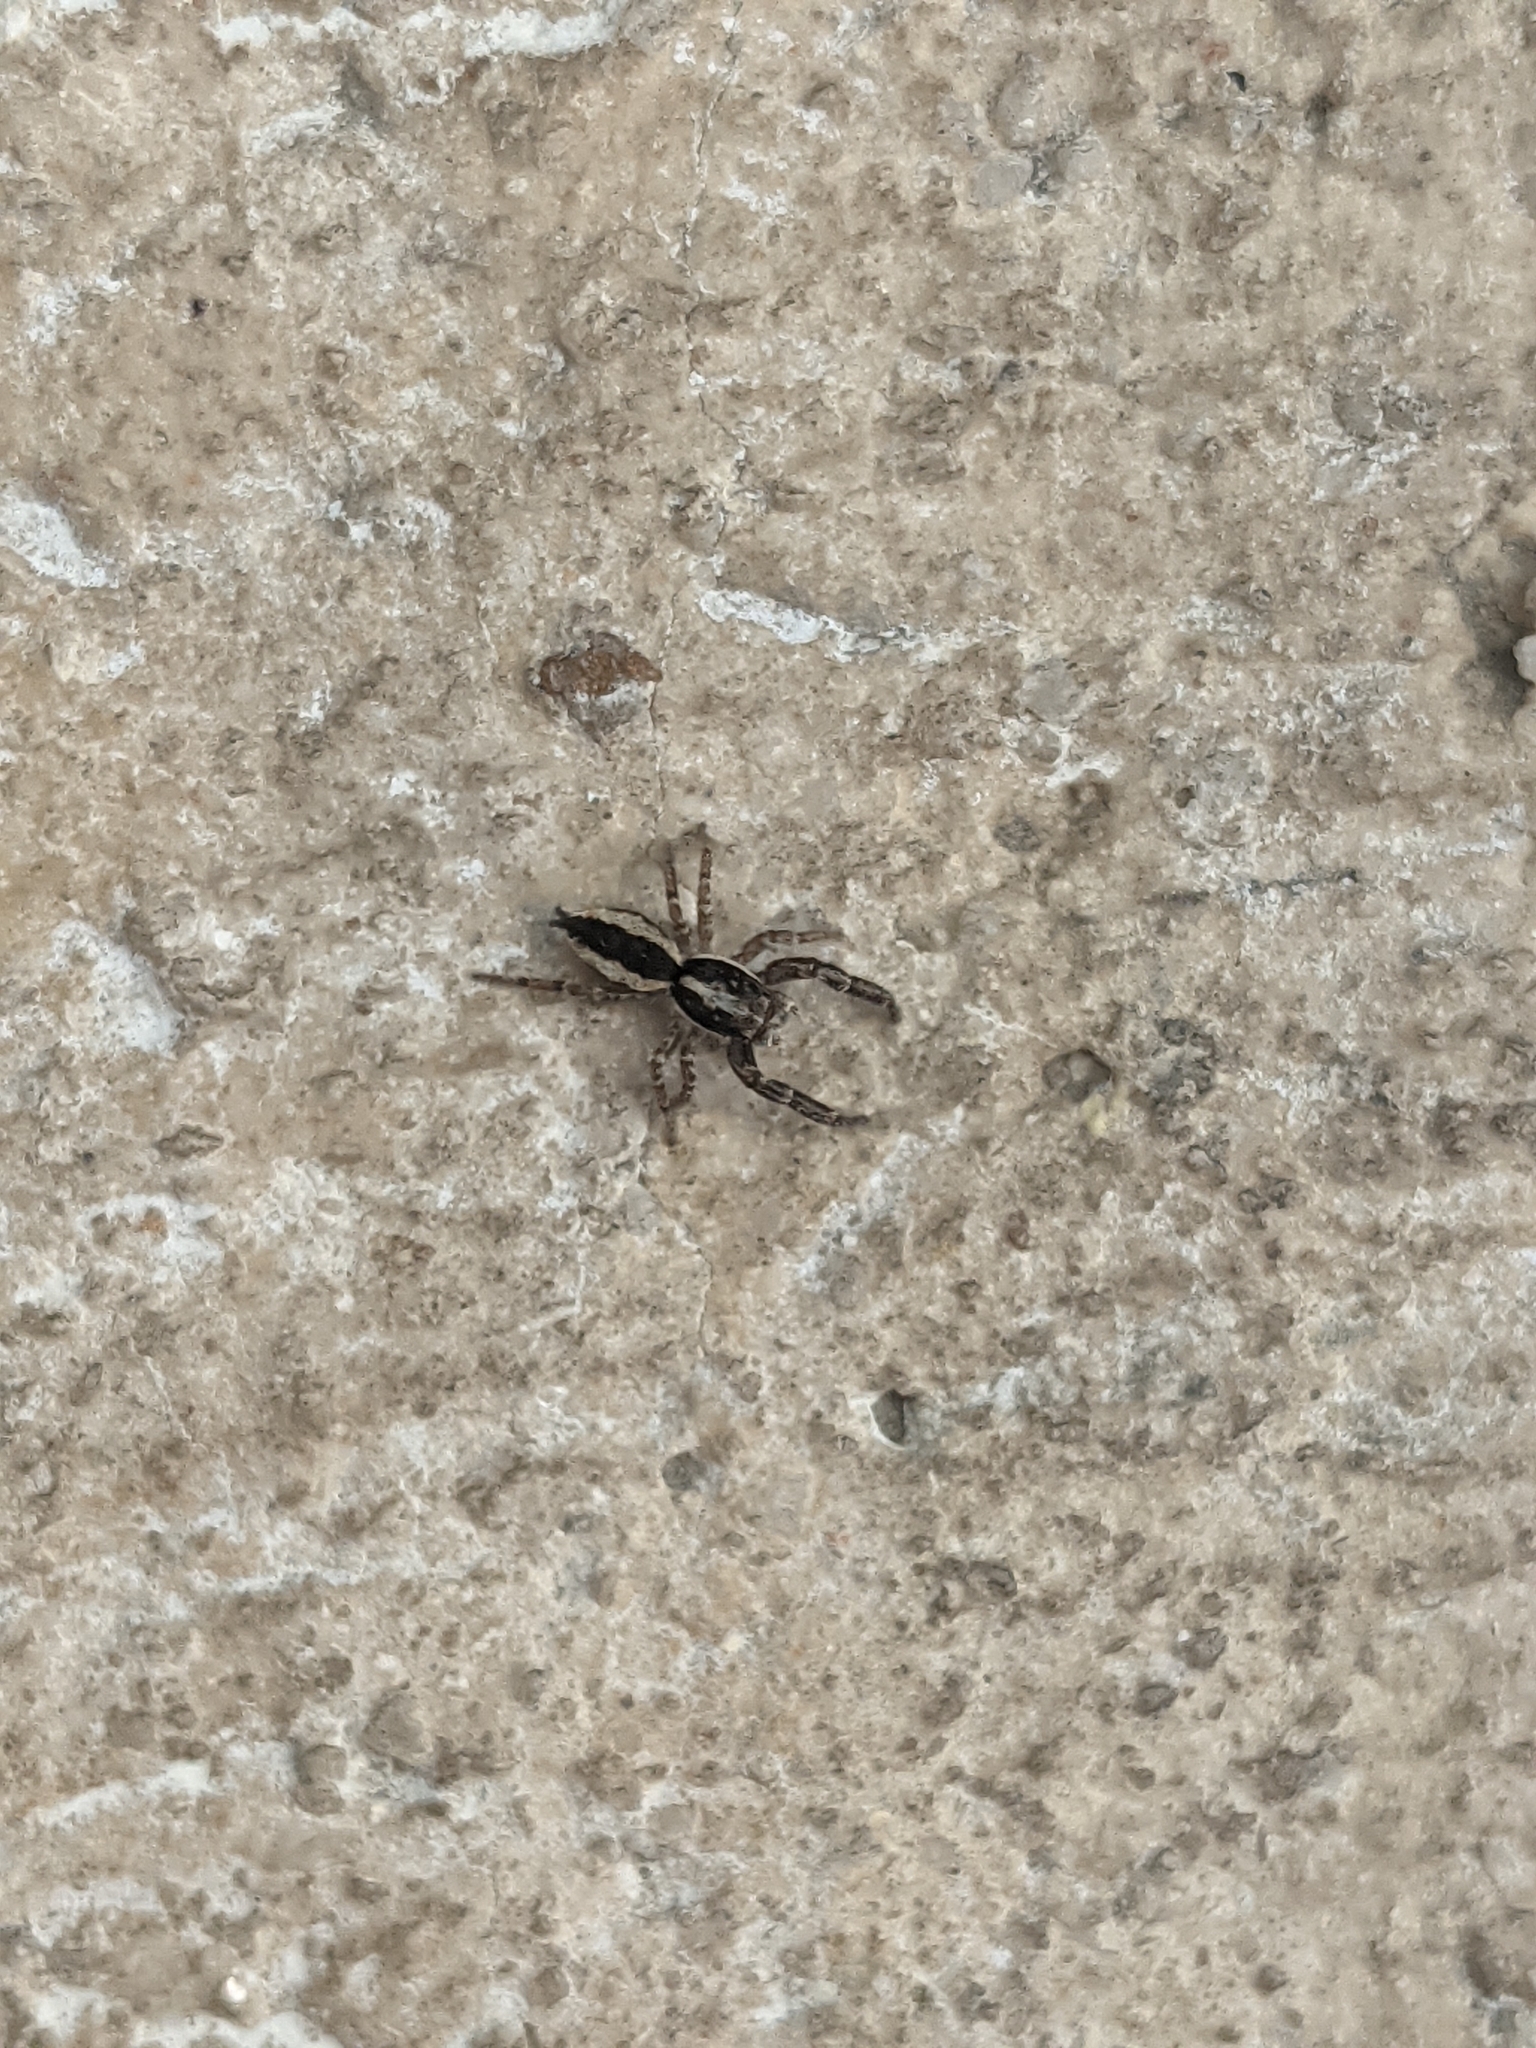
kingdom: Animalia
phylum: Arthropoda
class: Arachnida
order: Araneae
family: Salticidae
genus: Pseudicius
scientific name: Pseudicius encarpatus
